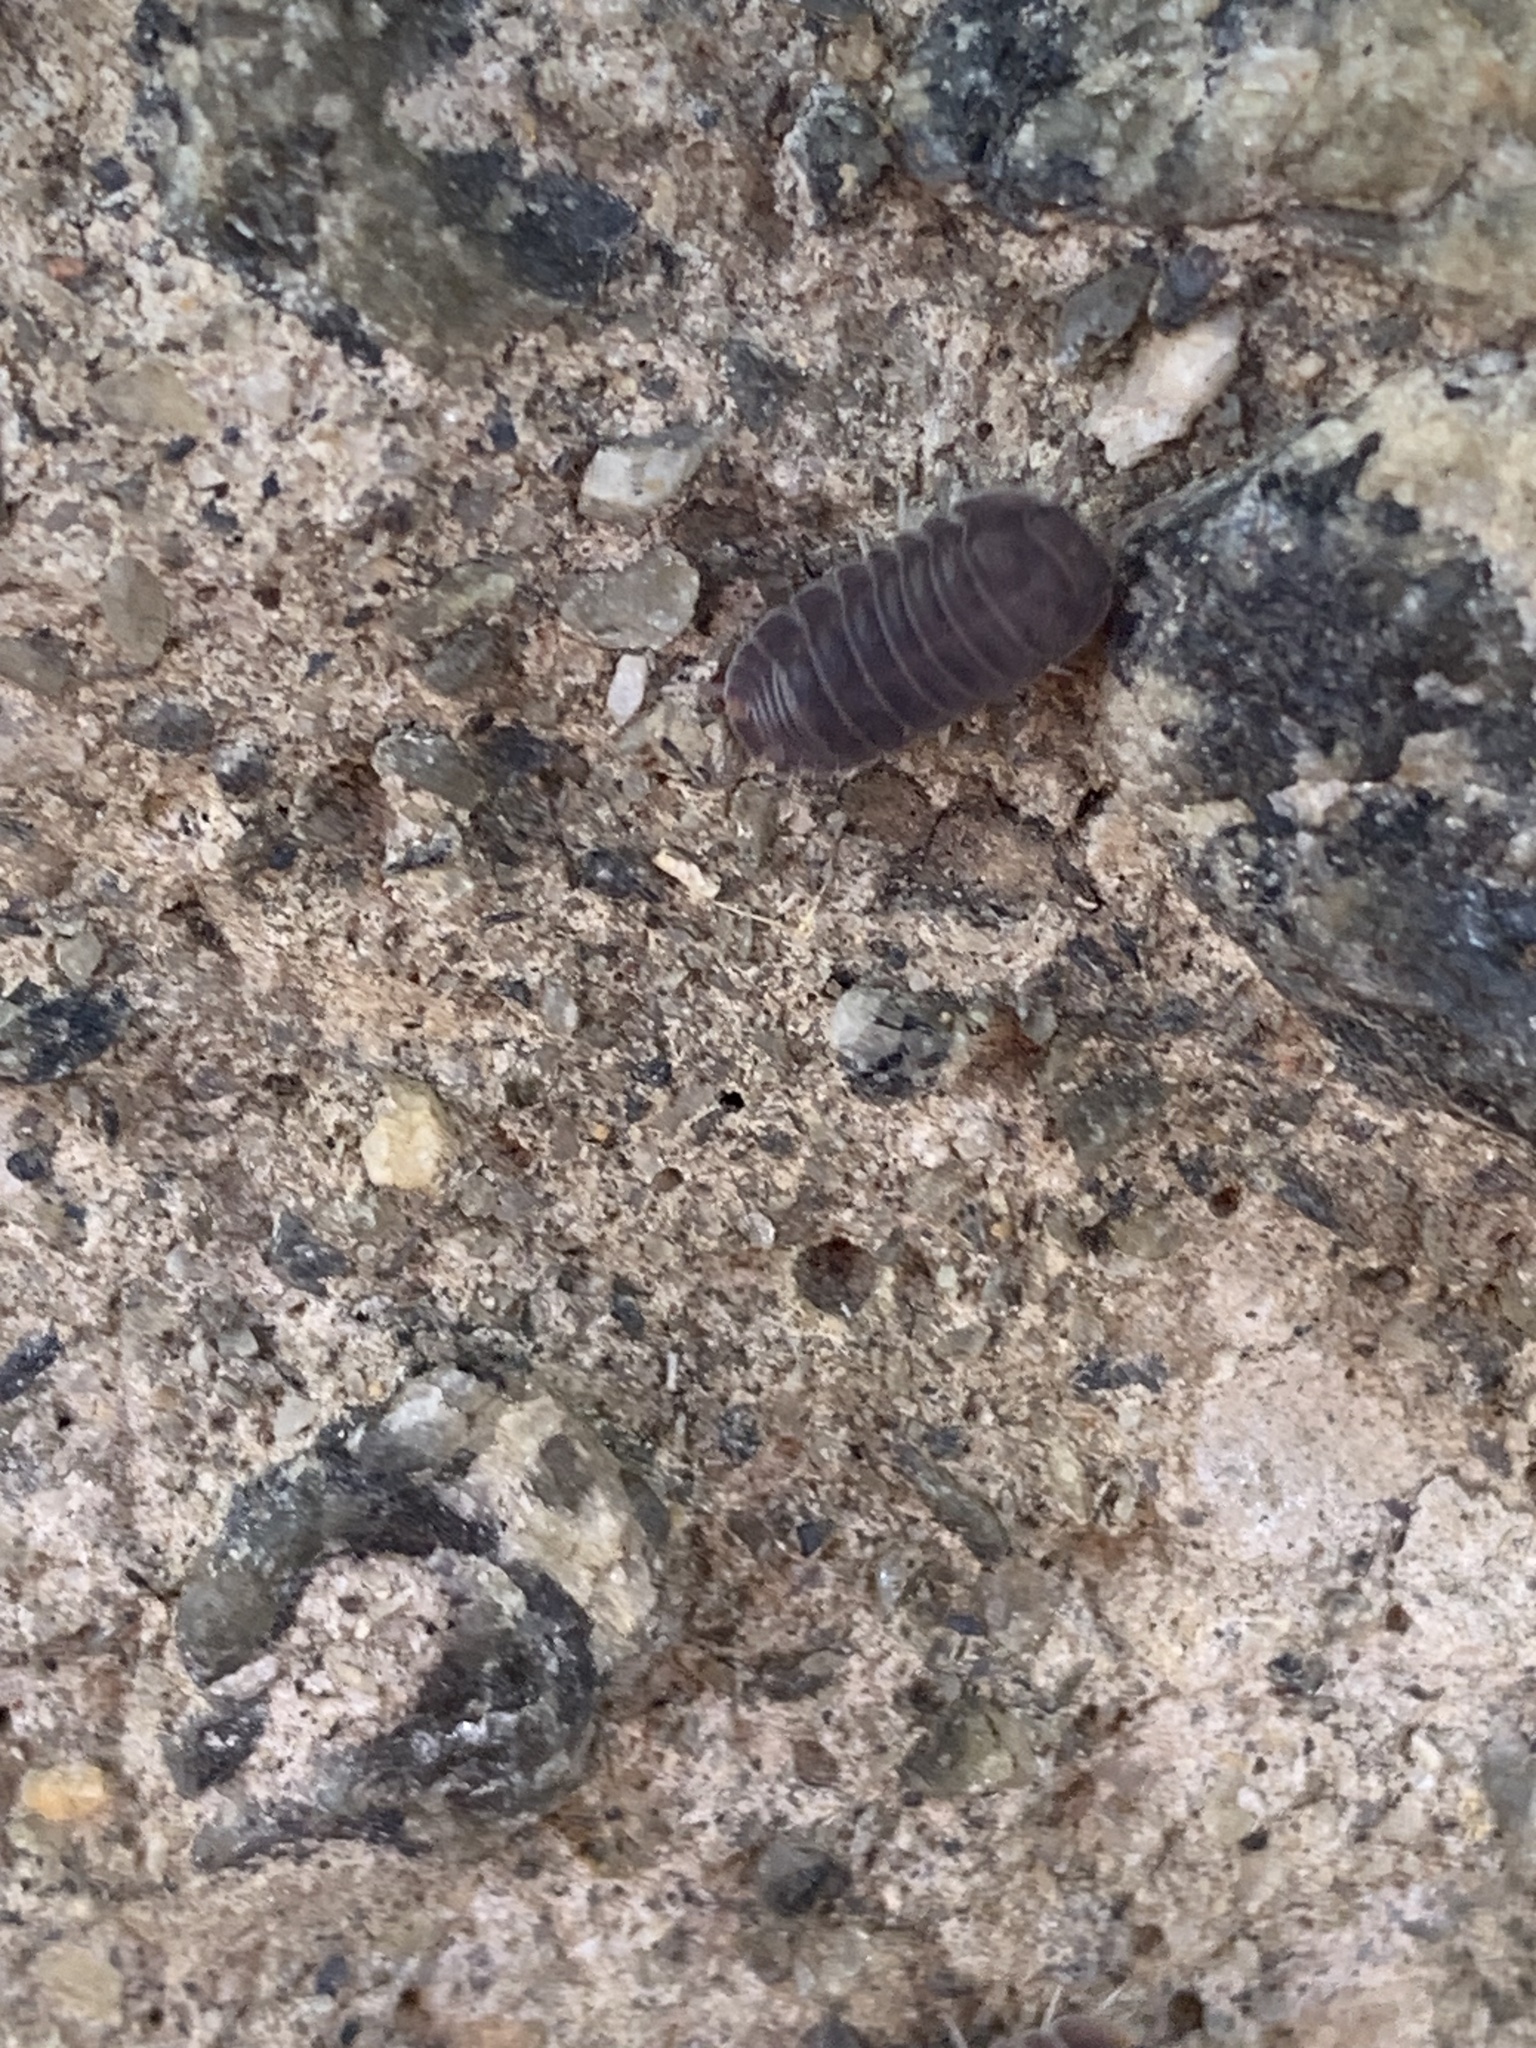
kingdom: Animalia
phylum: Arthropoda
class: Malacostraca
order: Isopoda
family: Armadillidae
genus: Cubaris
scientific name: Cubaris murina
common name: Pillbug
